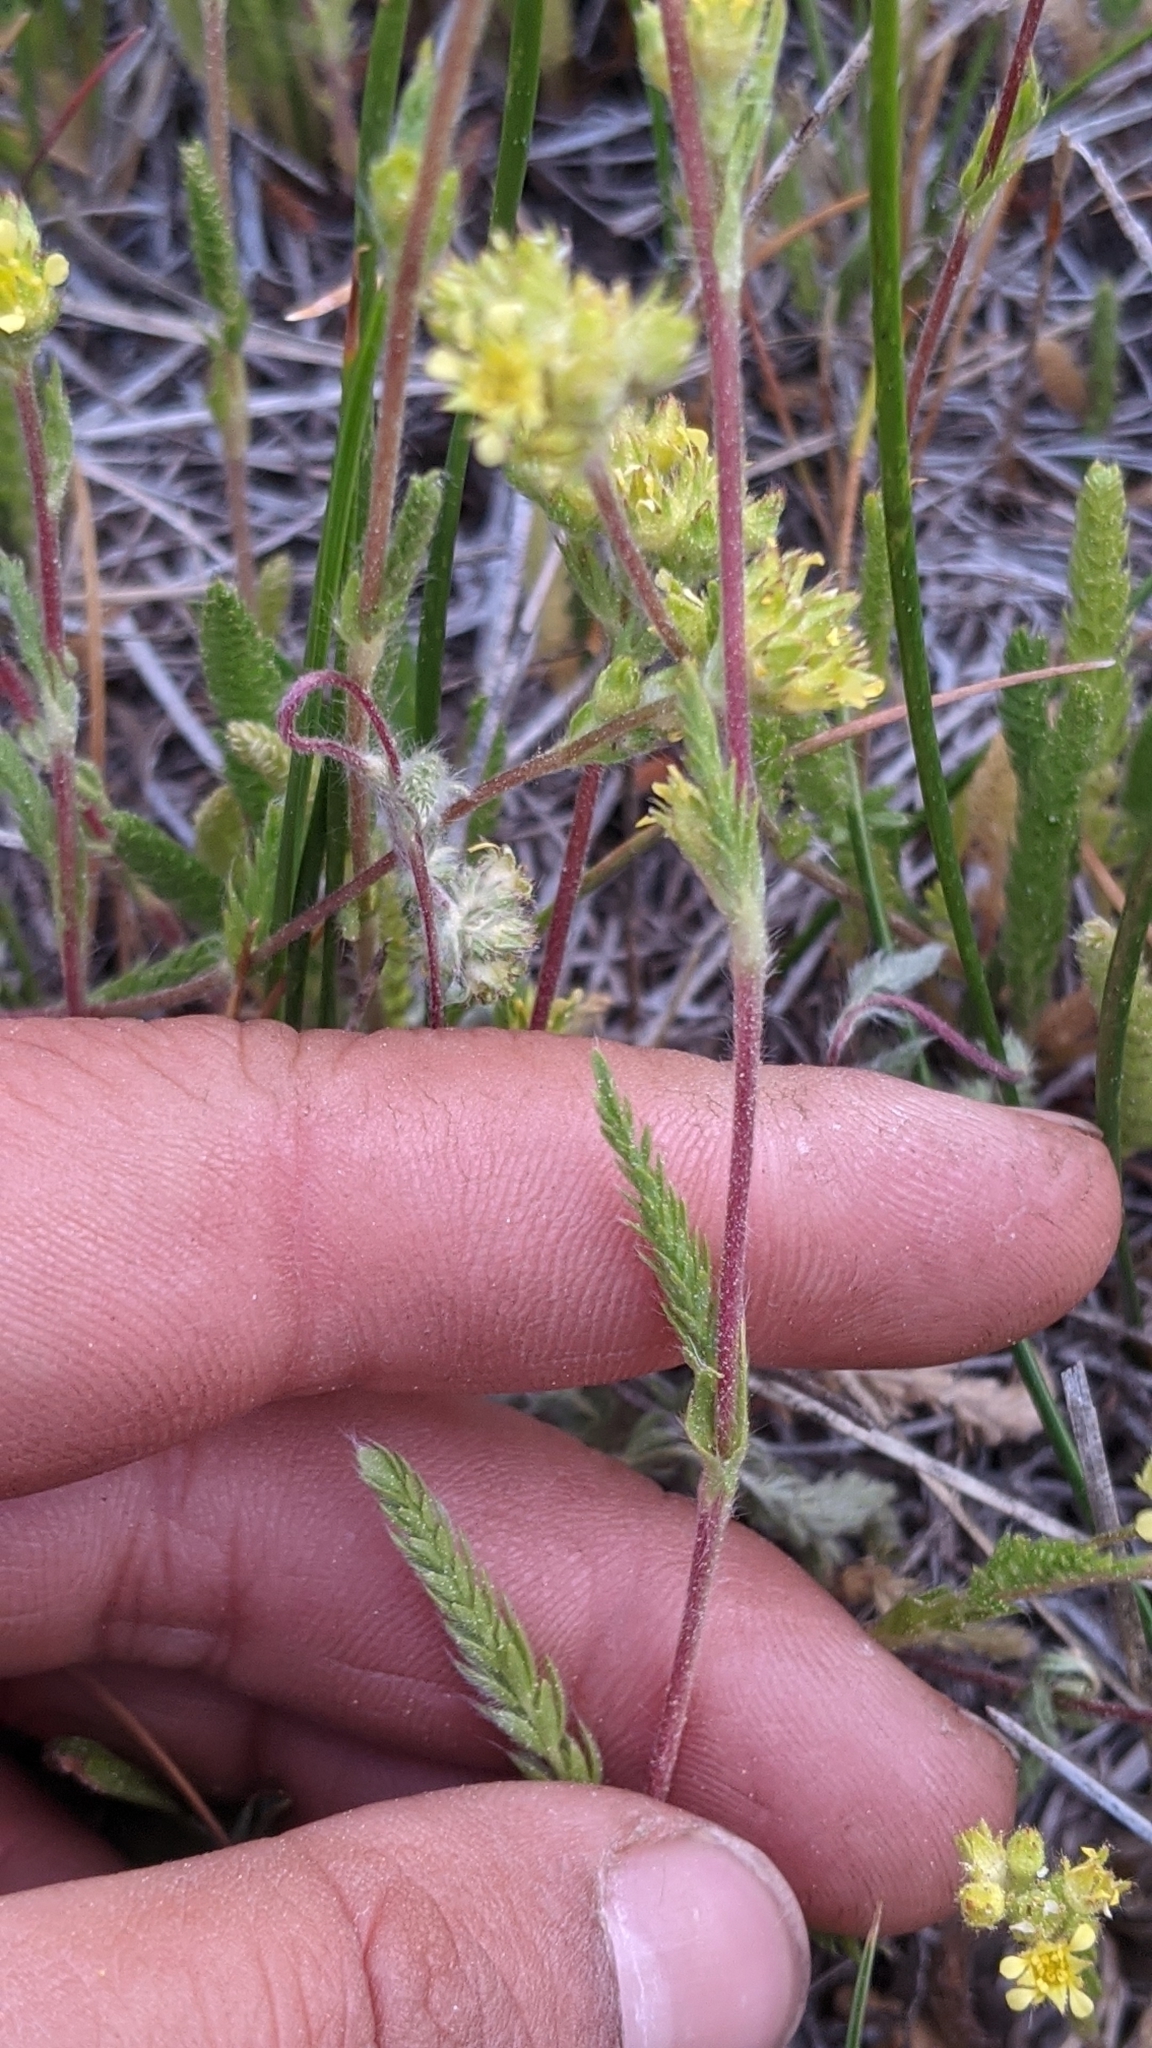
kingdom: Plantae
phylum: Tracheophyta
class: Magnoliopsida
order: Rosales
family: Rosaceae
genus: Potentilla
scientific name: Potentilla campestris
